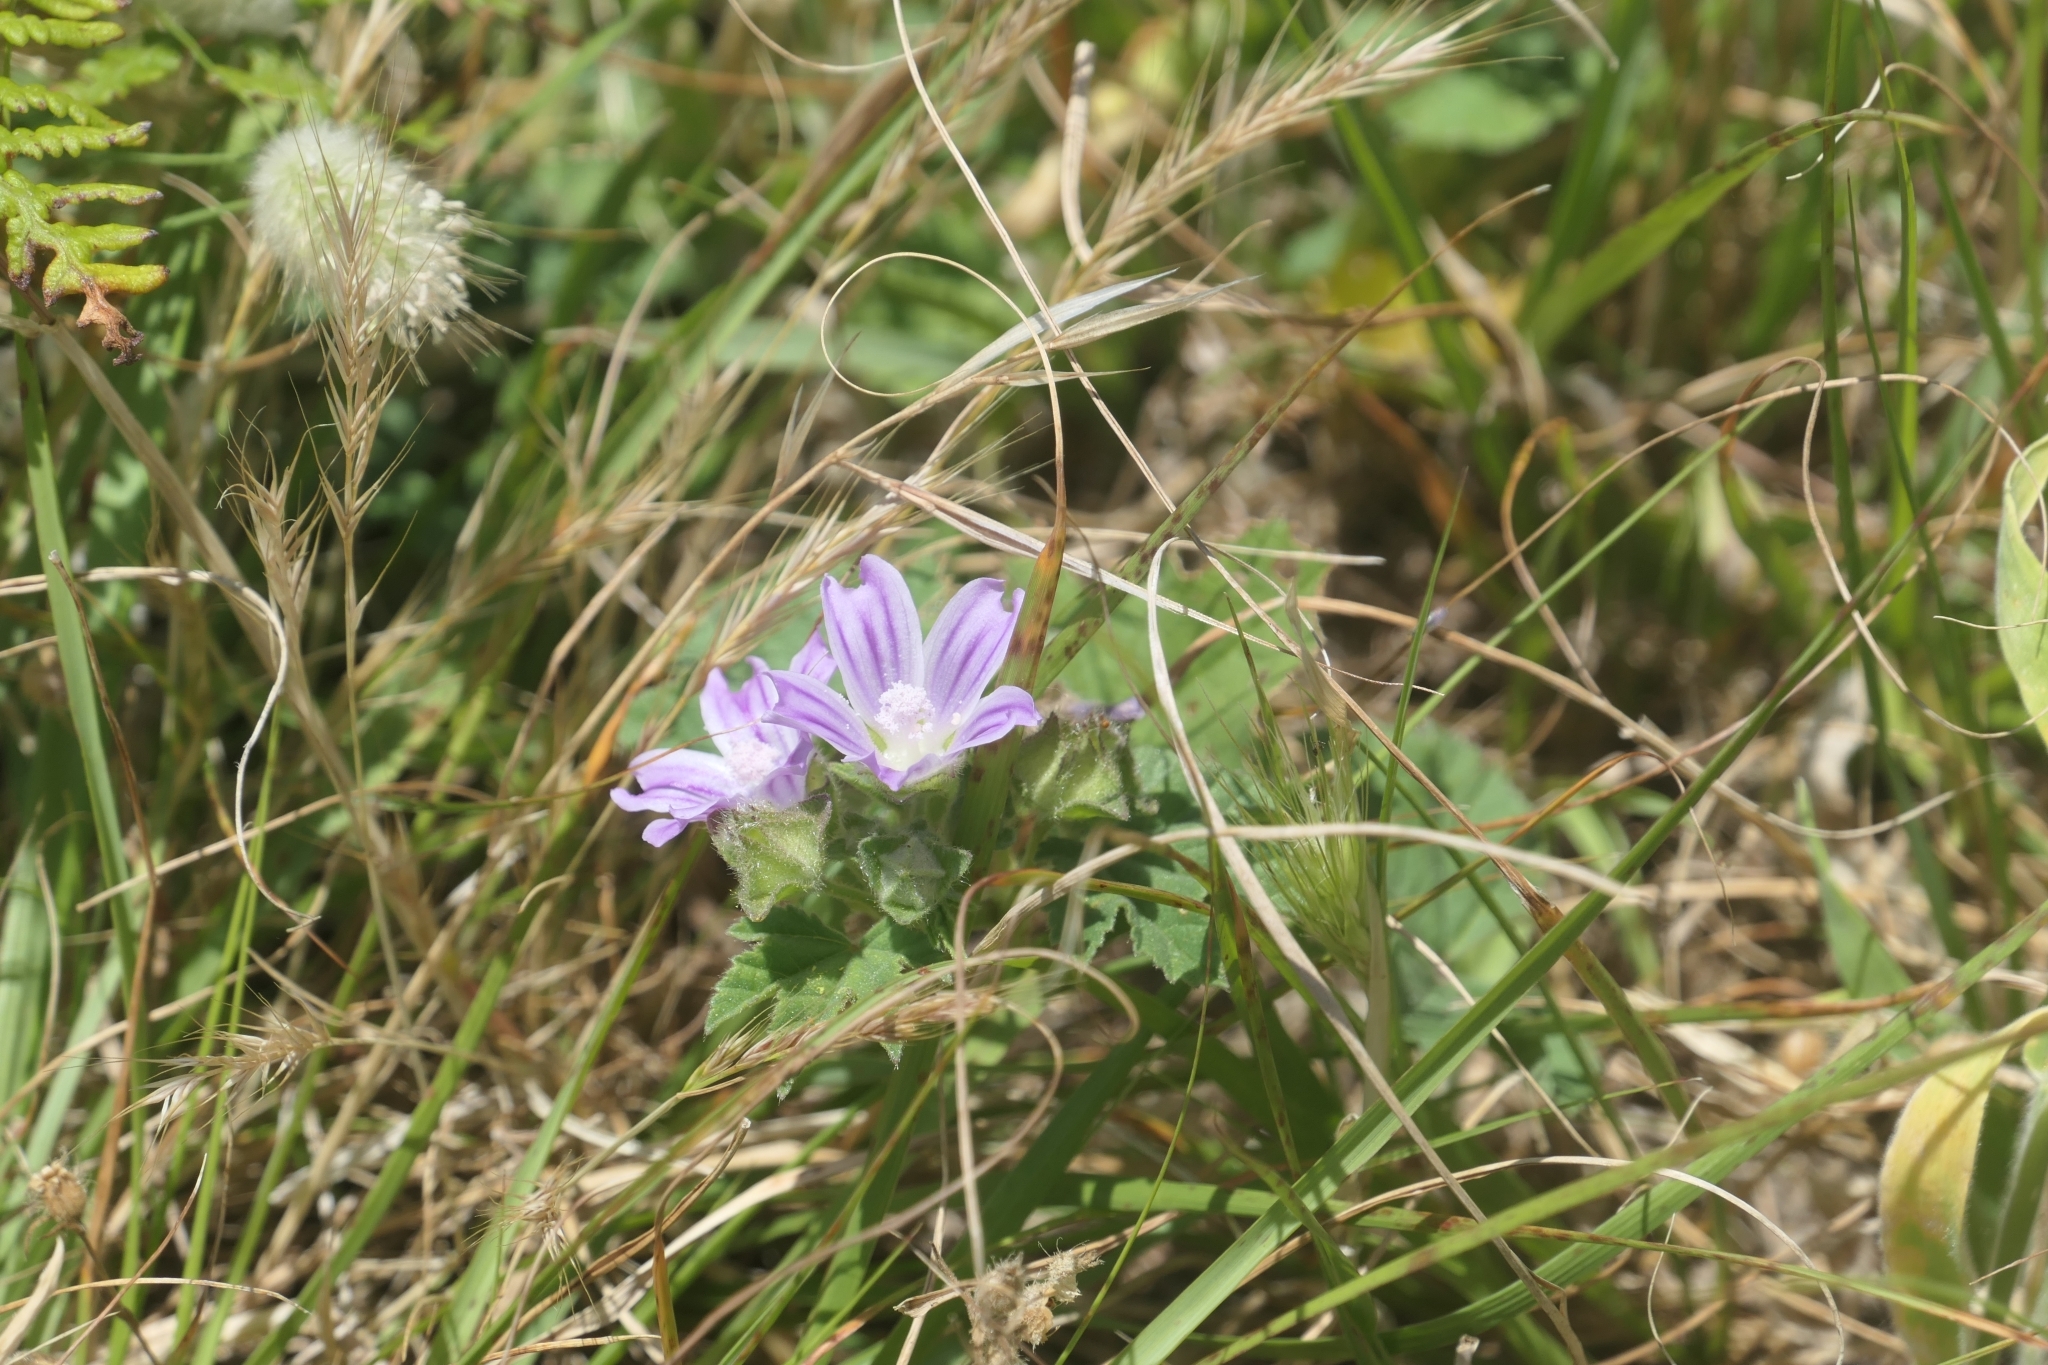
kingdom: Plantae
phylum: Tracheophyta
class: Magnoliopsida
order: Malvales
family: Malvaceae
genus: Malva
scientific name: Malva multiflora
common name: Cheeseweed
